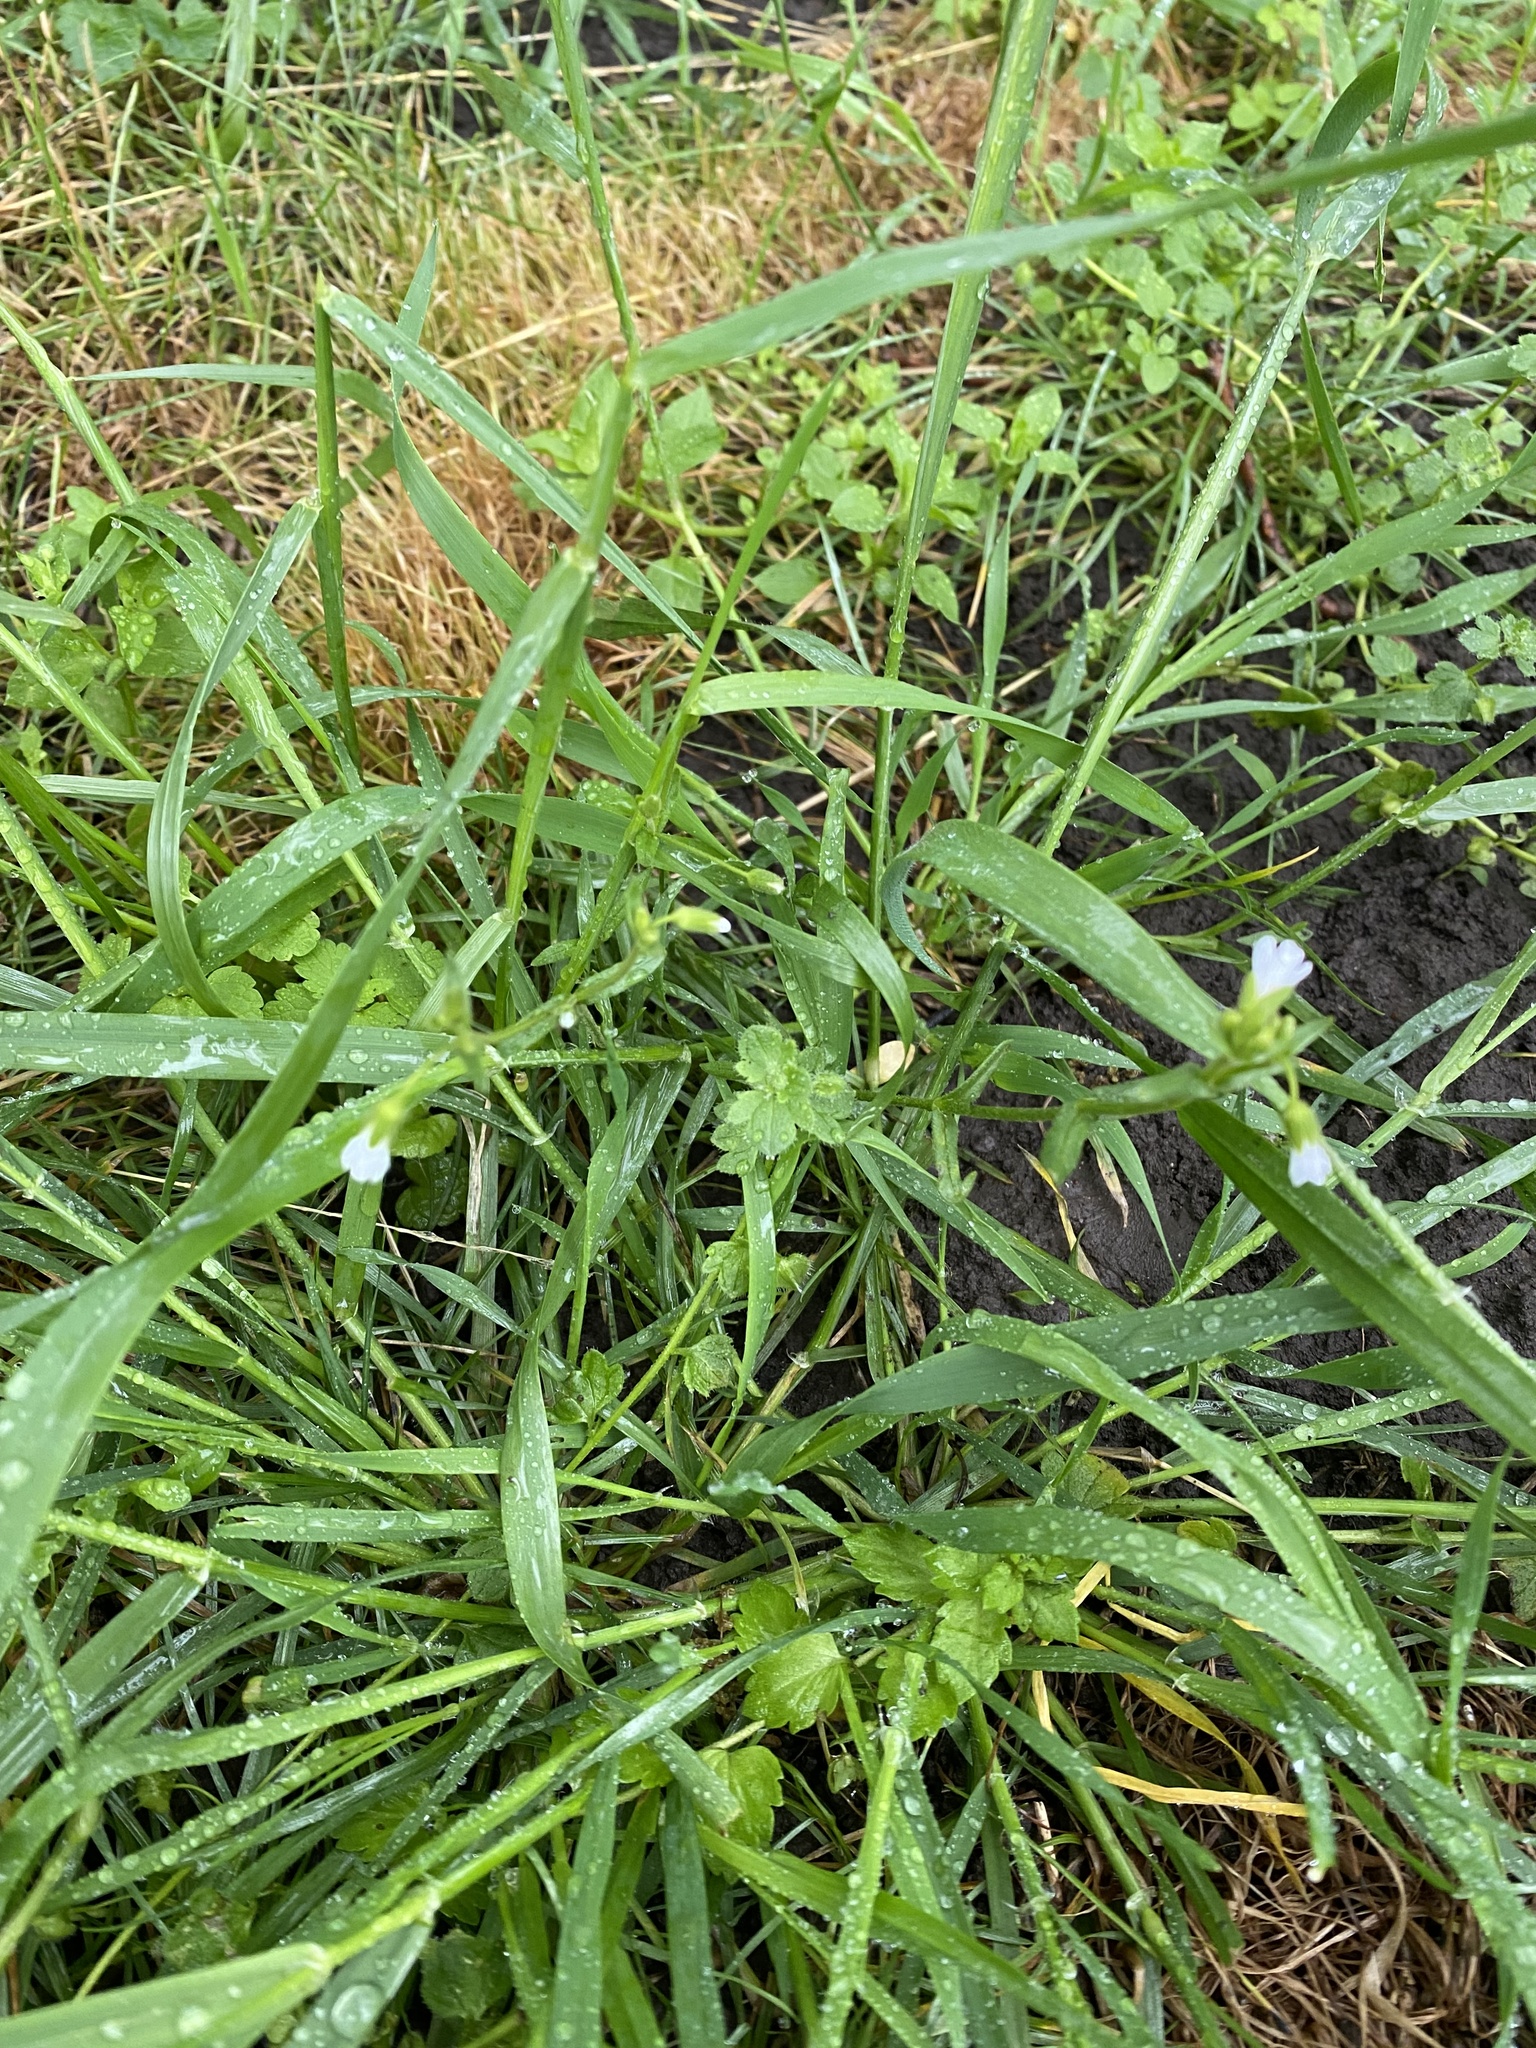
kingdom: Plantae
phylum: Tracheophyta
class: Magnoliopsida
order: Caryophyllales
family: Caryophyllaceae
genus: Dichodon
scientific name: Dichodon viscidum
